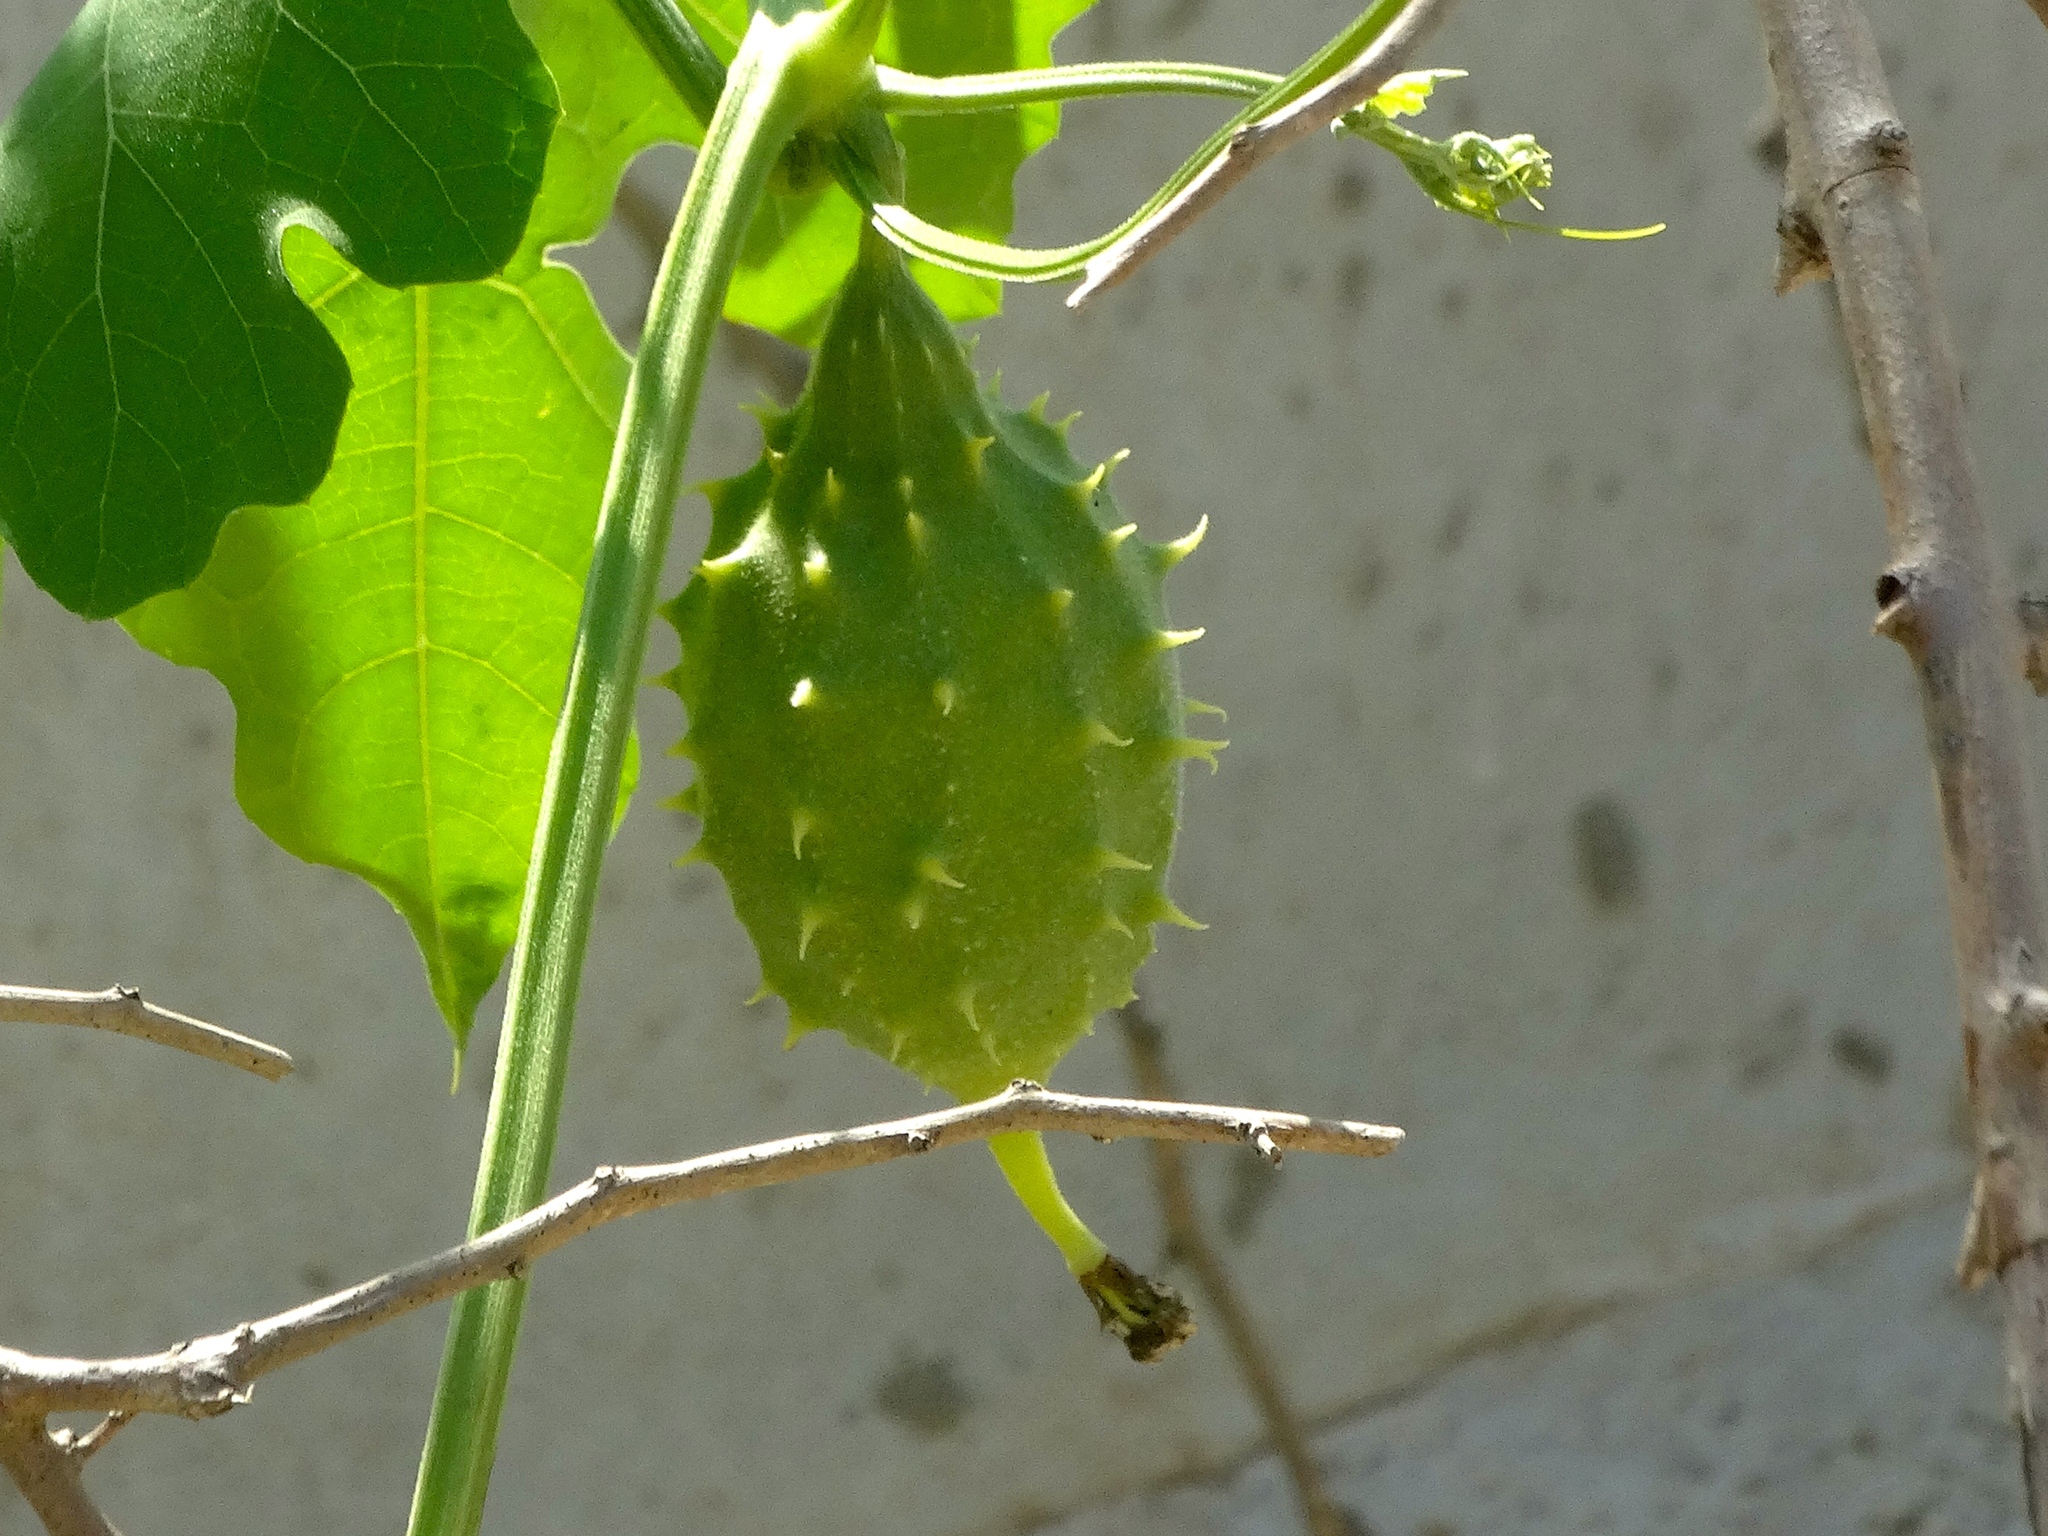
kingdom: Plantae
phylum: Tracheophyta
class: Magnoliopsida
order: Cucurbitales
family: Cucurbitaceae
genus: Luffa
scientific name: Luffa
